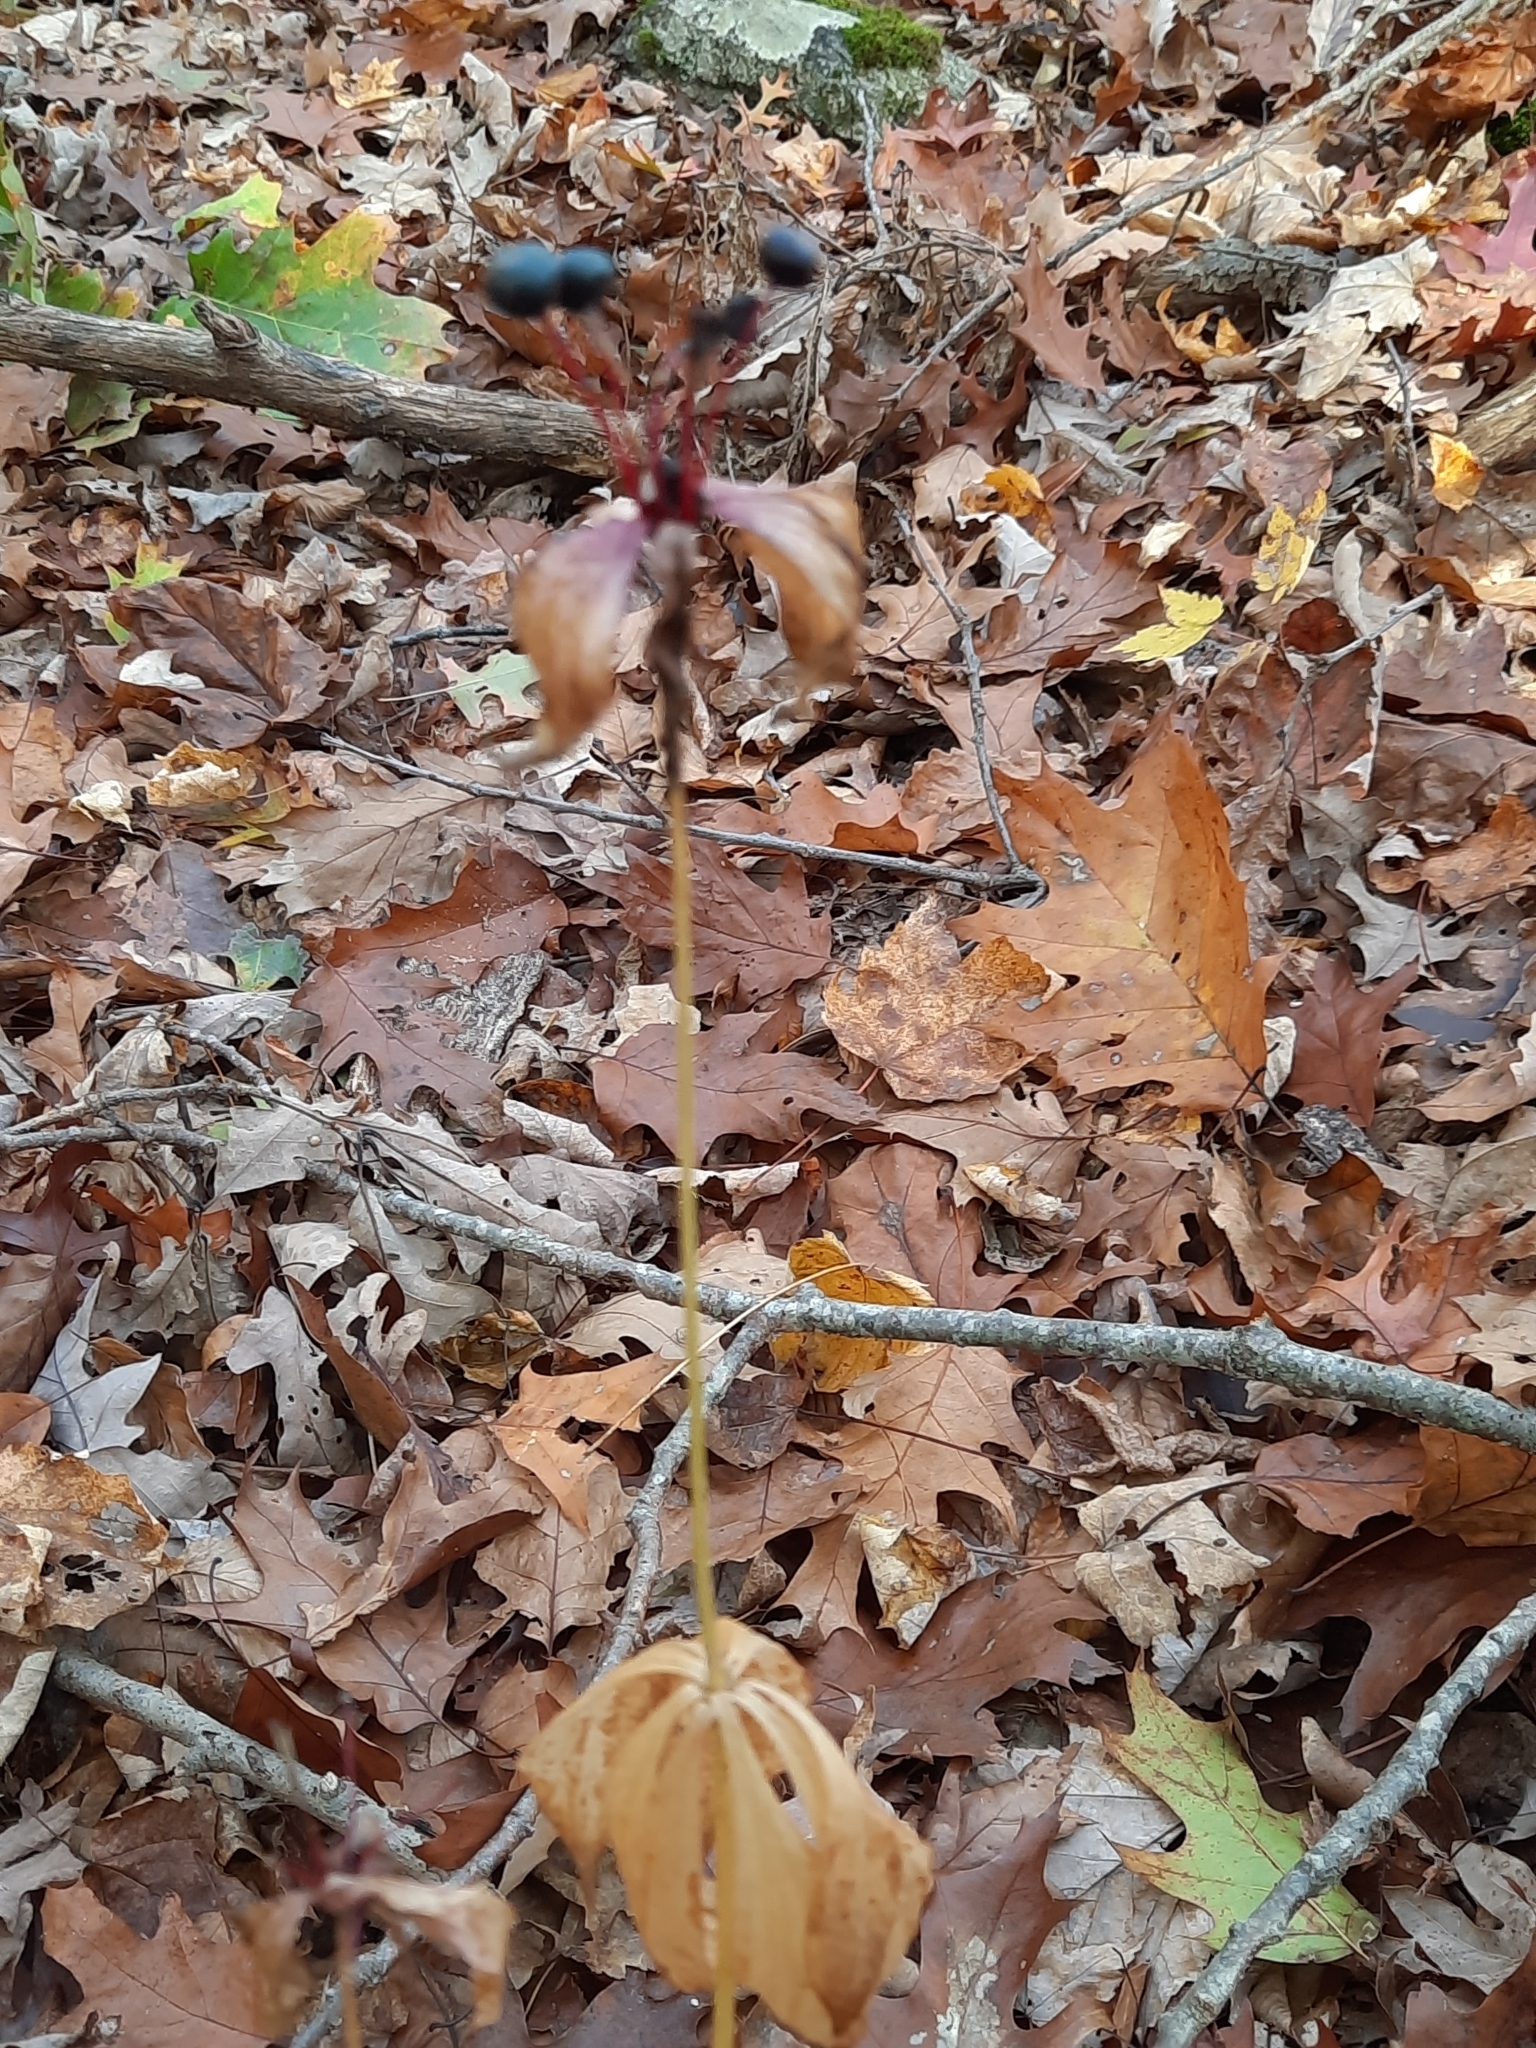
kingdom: Plantae
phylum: Tracheophyta
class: Liliopsida
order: Liliales
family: Liliaceae
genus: Medeola
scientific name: Medeola virginiana
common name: Indian cucumber-root
